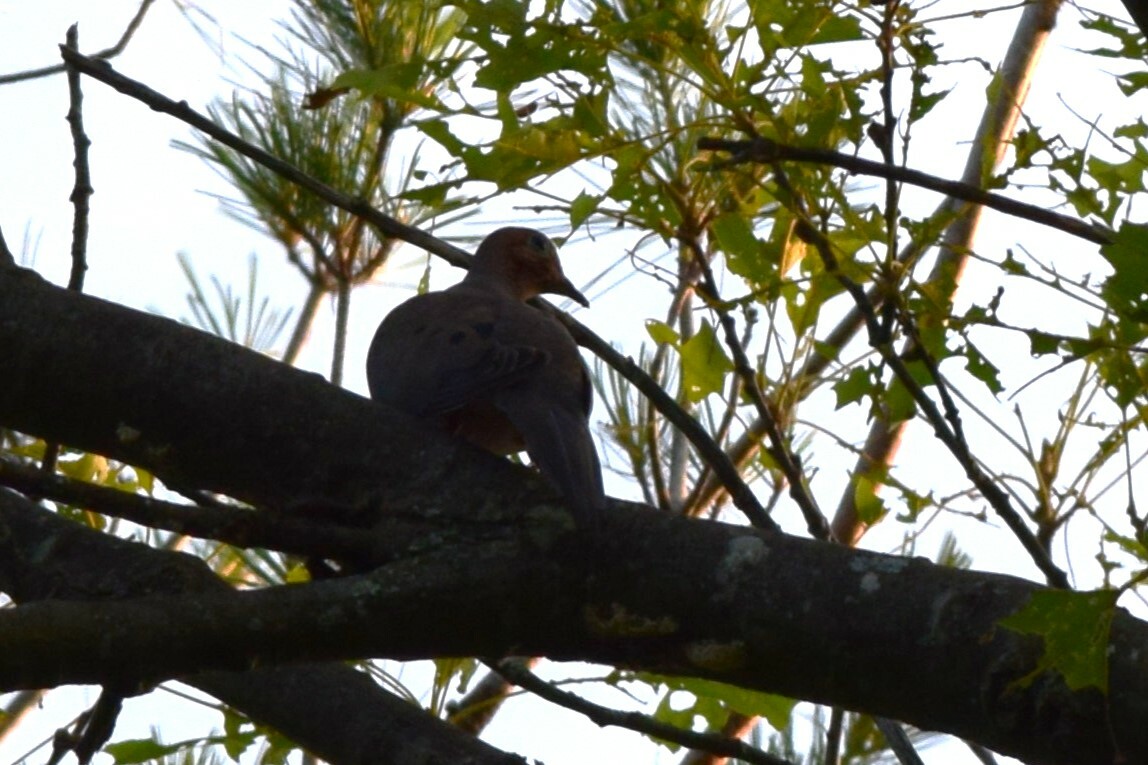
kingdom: Animalia
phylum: Chordata
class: Aves
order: Columbiformes
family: Columbidae
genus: Zenaida
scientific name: Zenaida macroura
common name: Mourning dove
